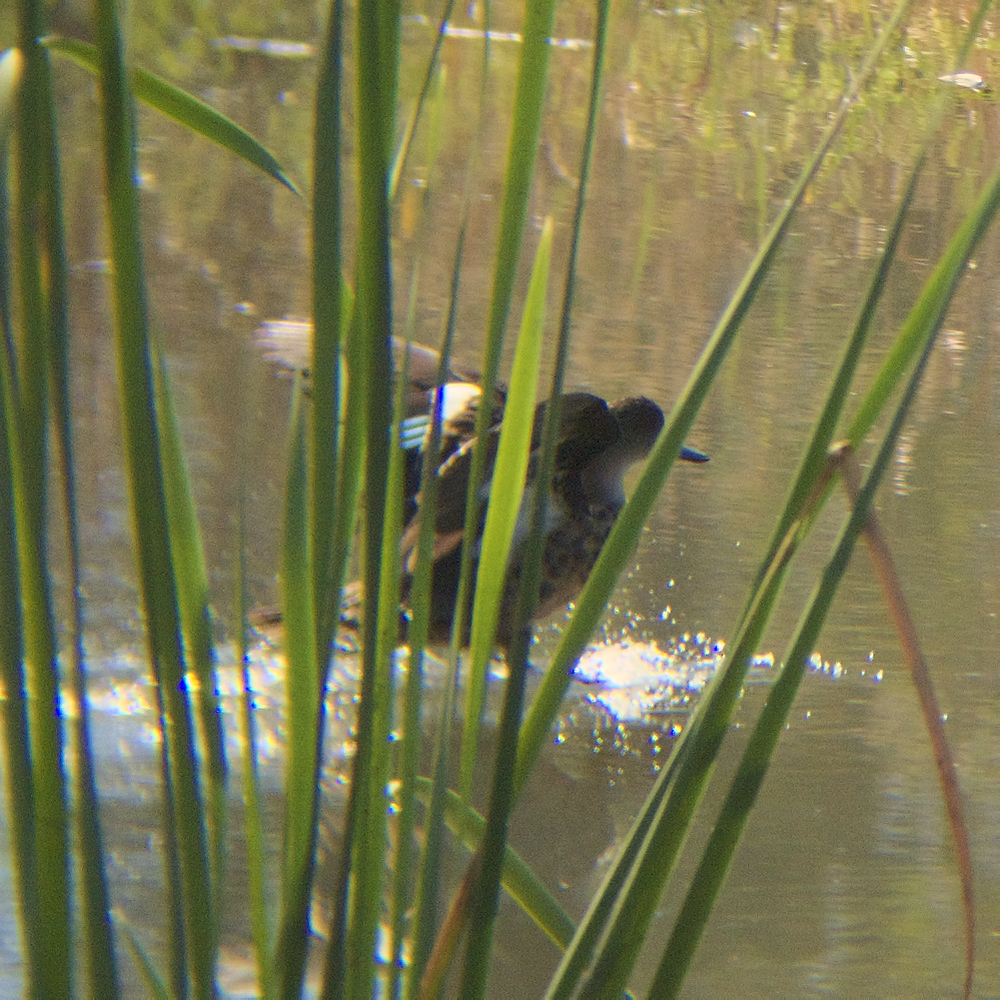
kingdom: Animalia
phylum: Chordata
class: Aves
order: Anseriformes
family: Anatidae
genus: Anas
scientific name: Anas gracilis
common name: Grey teal
